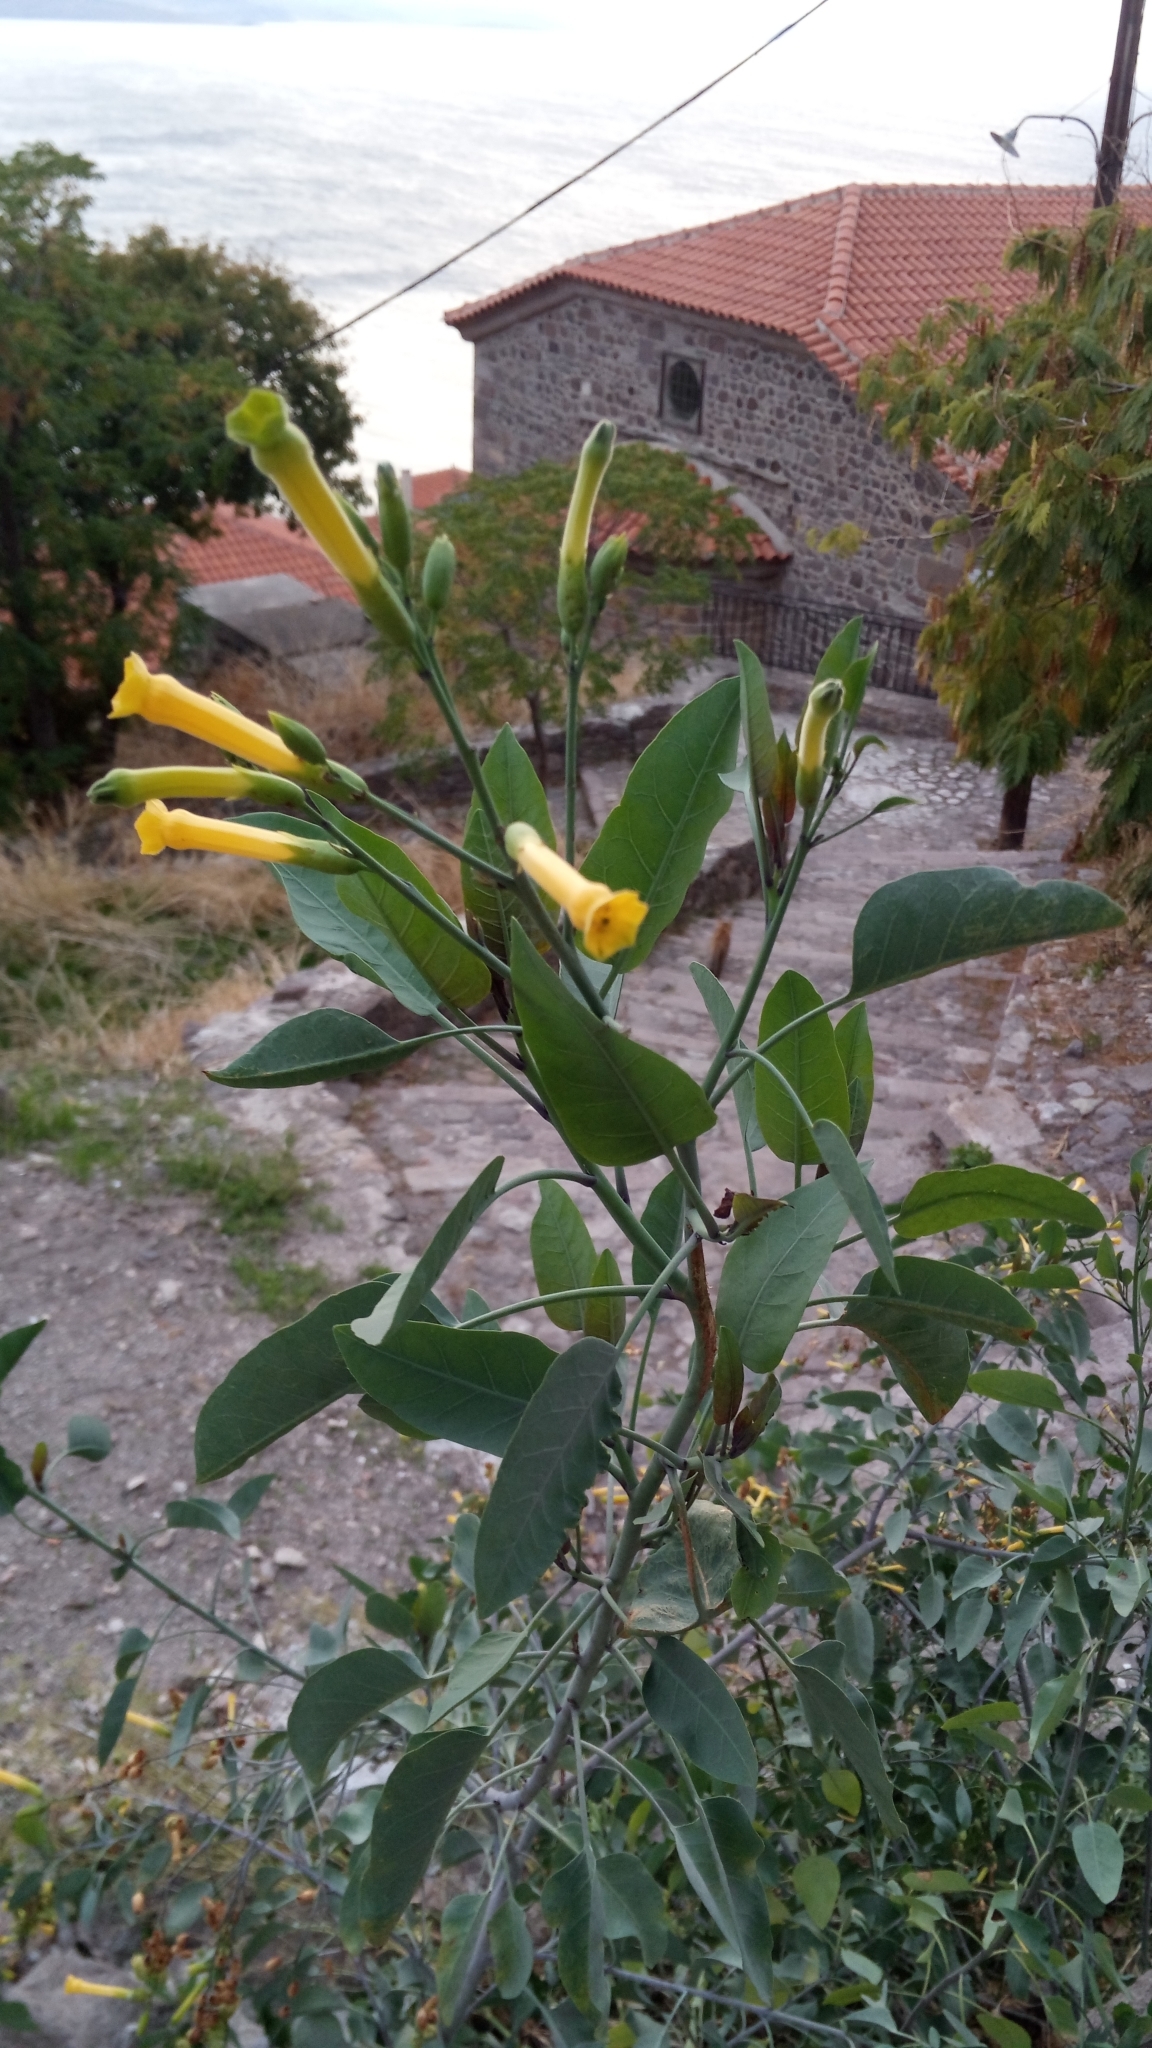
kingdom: Plantae
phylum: Tracheophyta
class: Magnoliopsida
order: Solanales
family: Solanaceae
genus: Nicotiana
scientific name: Nicotiana glauca
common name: Tree tobacco
